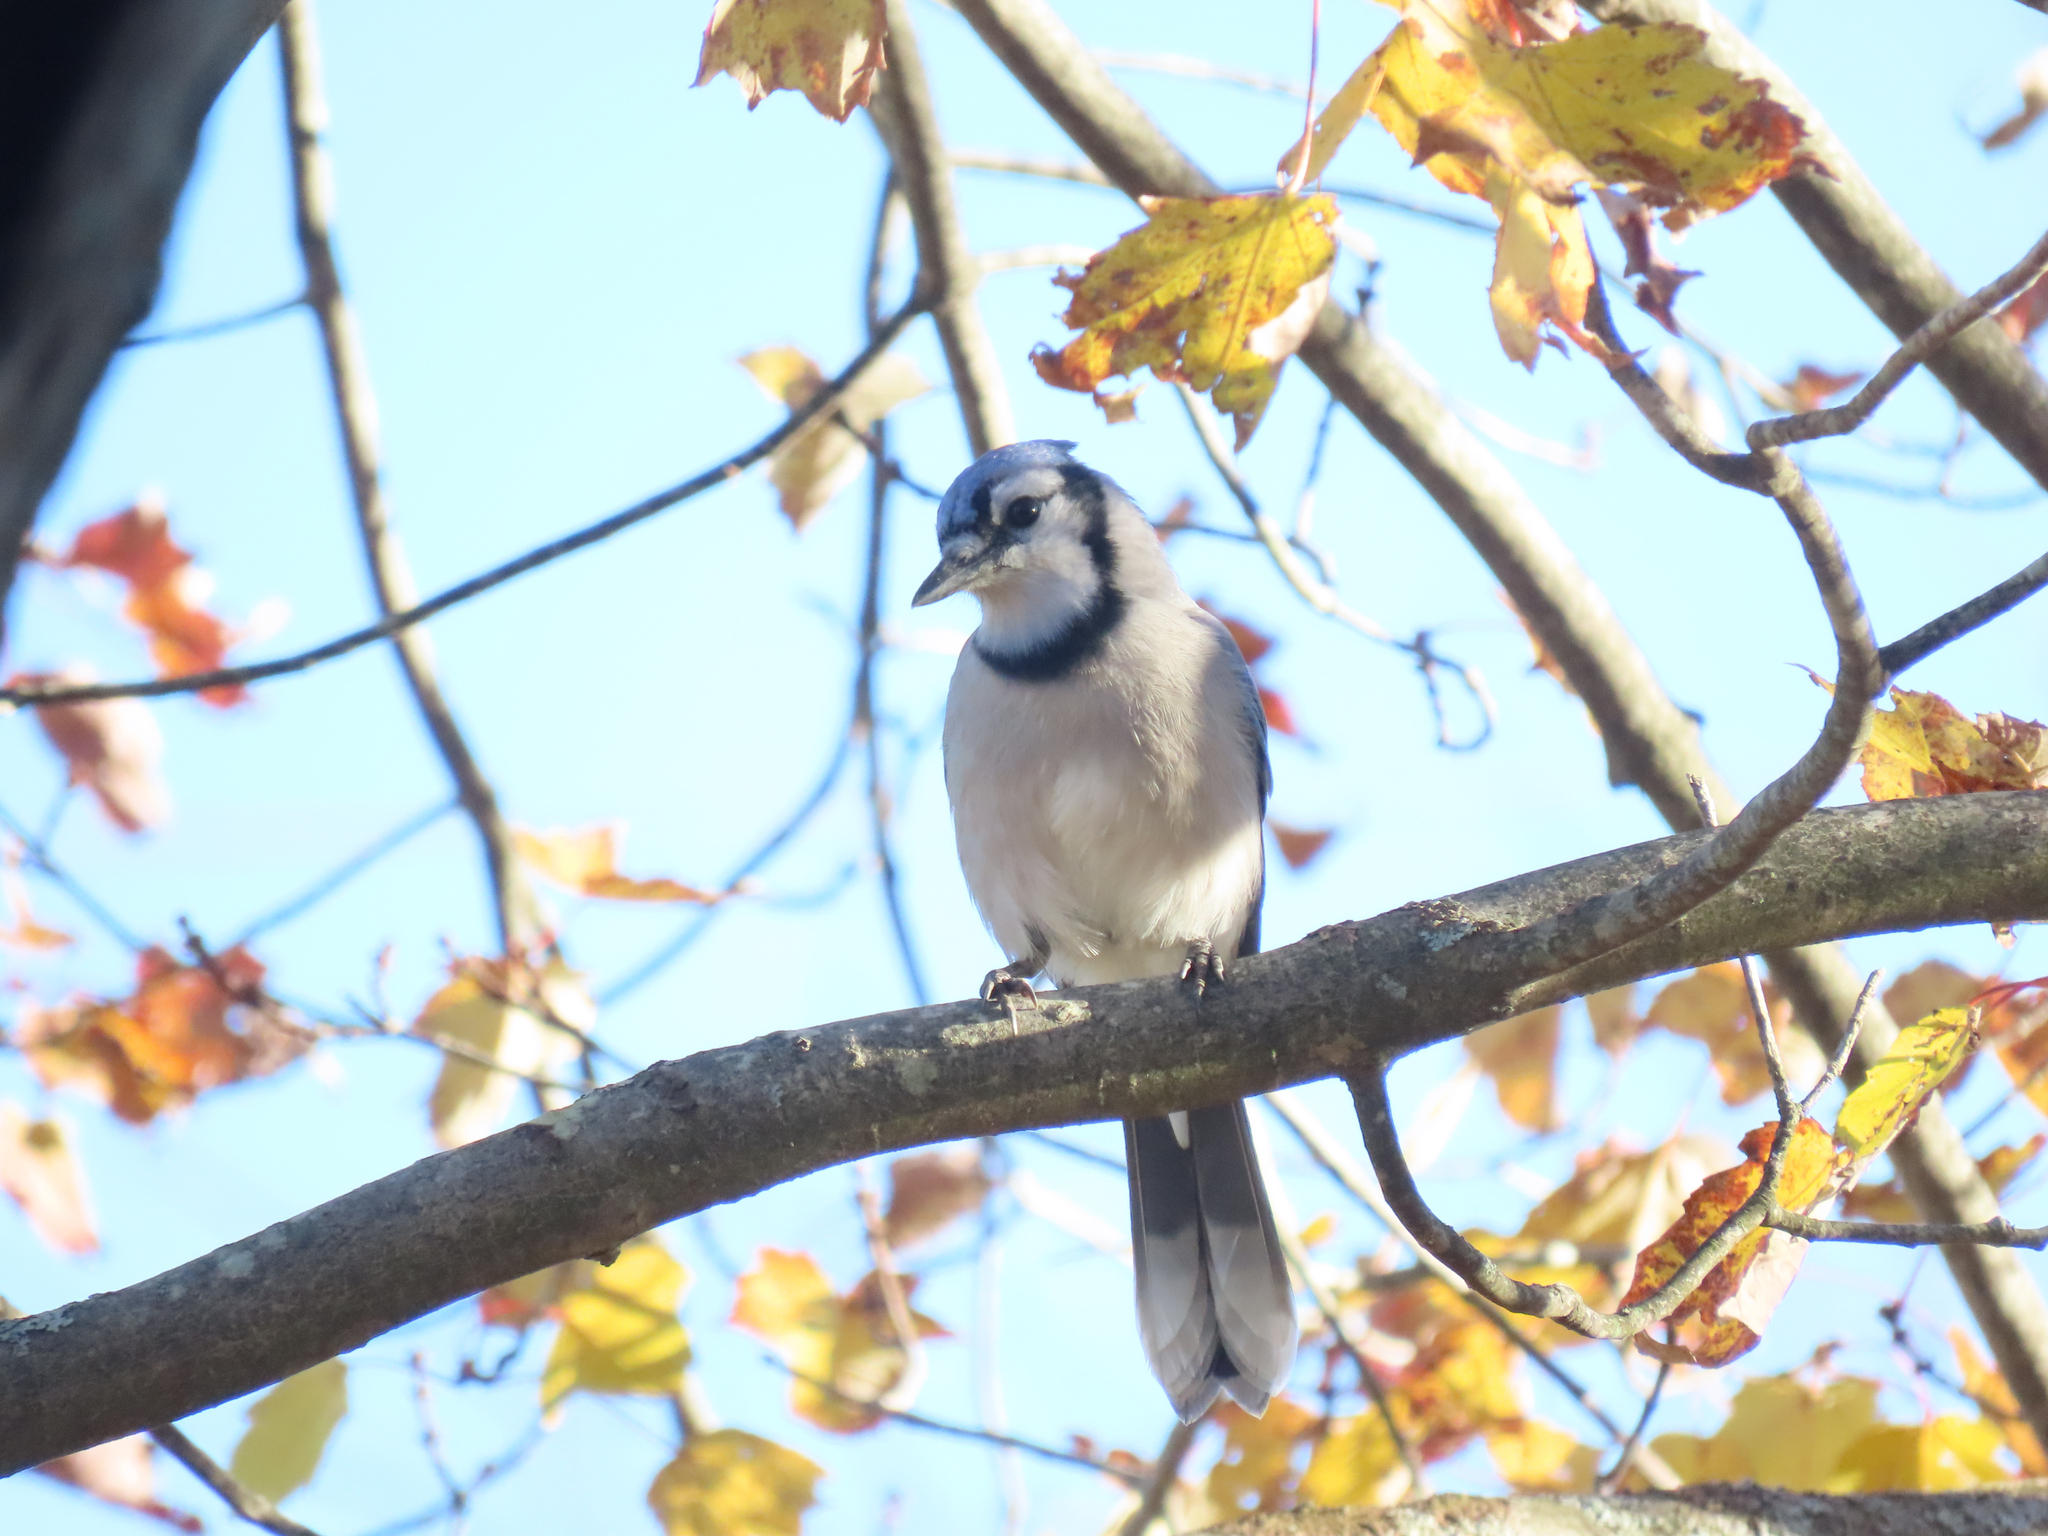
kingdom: Animalia
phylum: Chordata
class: Aves
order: Passeriformes
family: Corvidae
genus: Cyanocitta
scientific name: Cyanocitta cristata
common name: Blue jay
